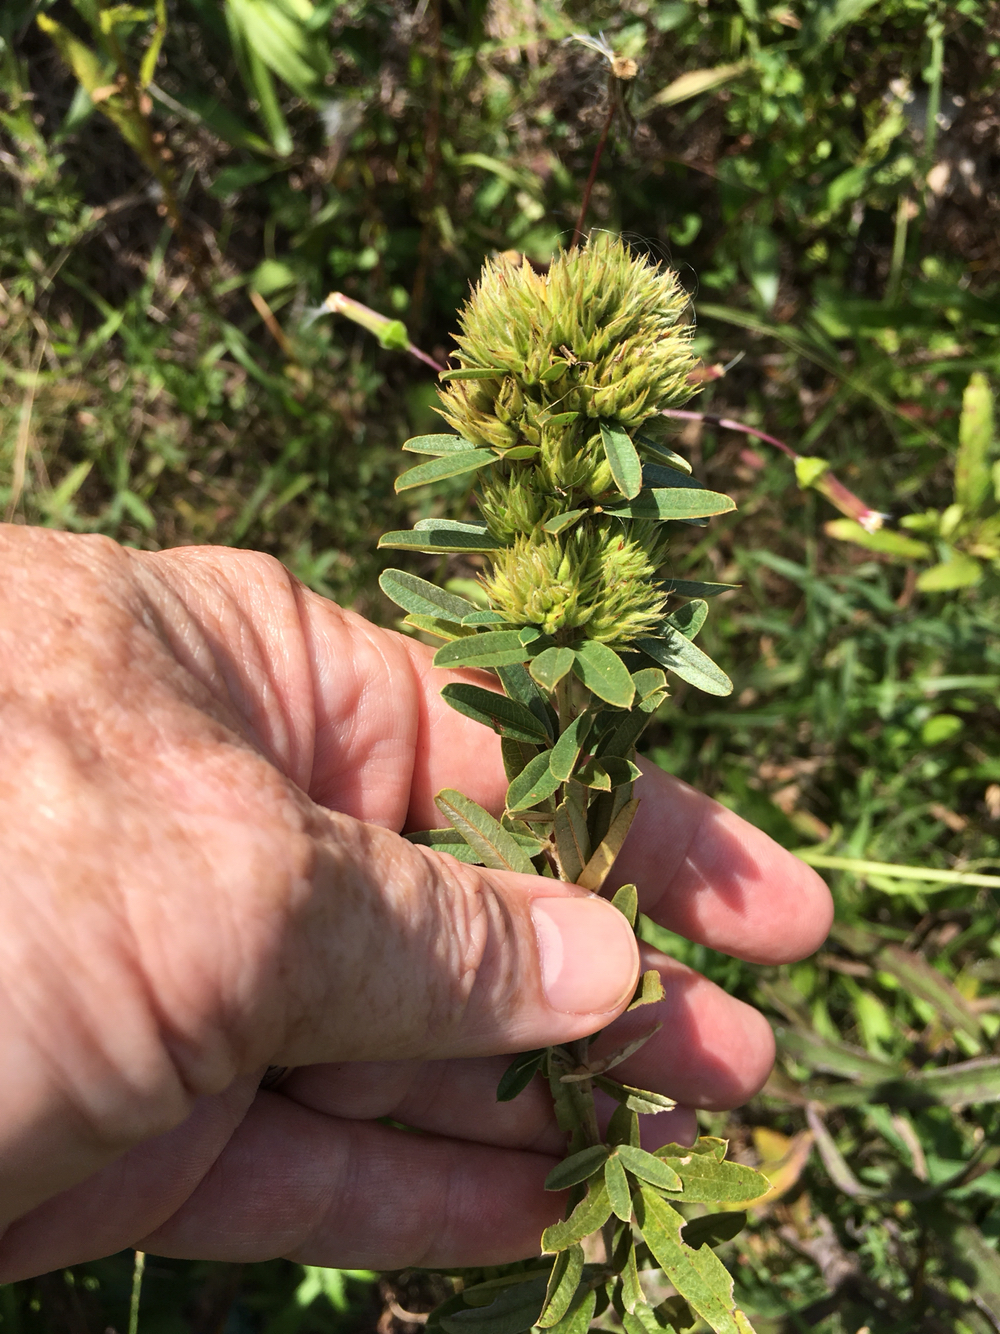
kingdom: Plantae
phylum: Tracheophyta
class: Magnoliopsida
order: Fabales
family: Fabaceae
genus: Lespedeza
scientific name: Lespedeza capitata
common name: Dusty clover
